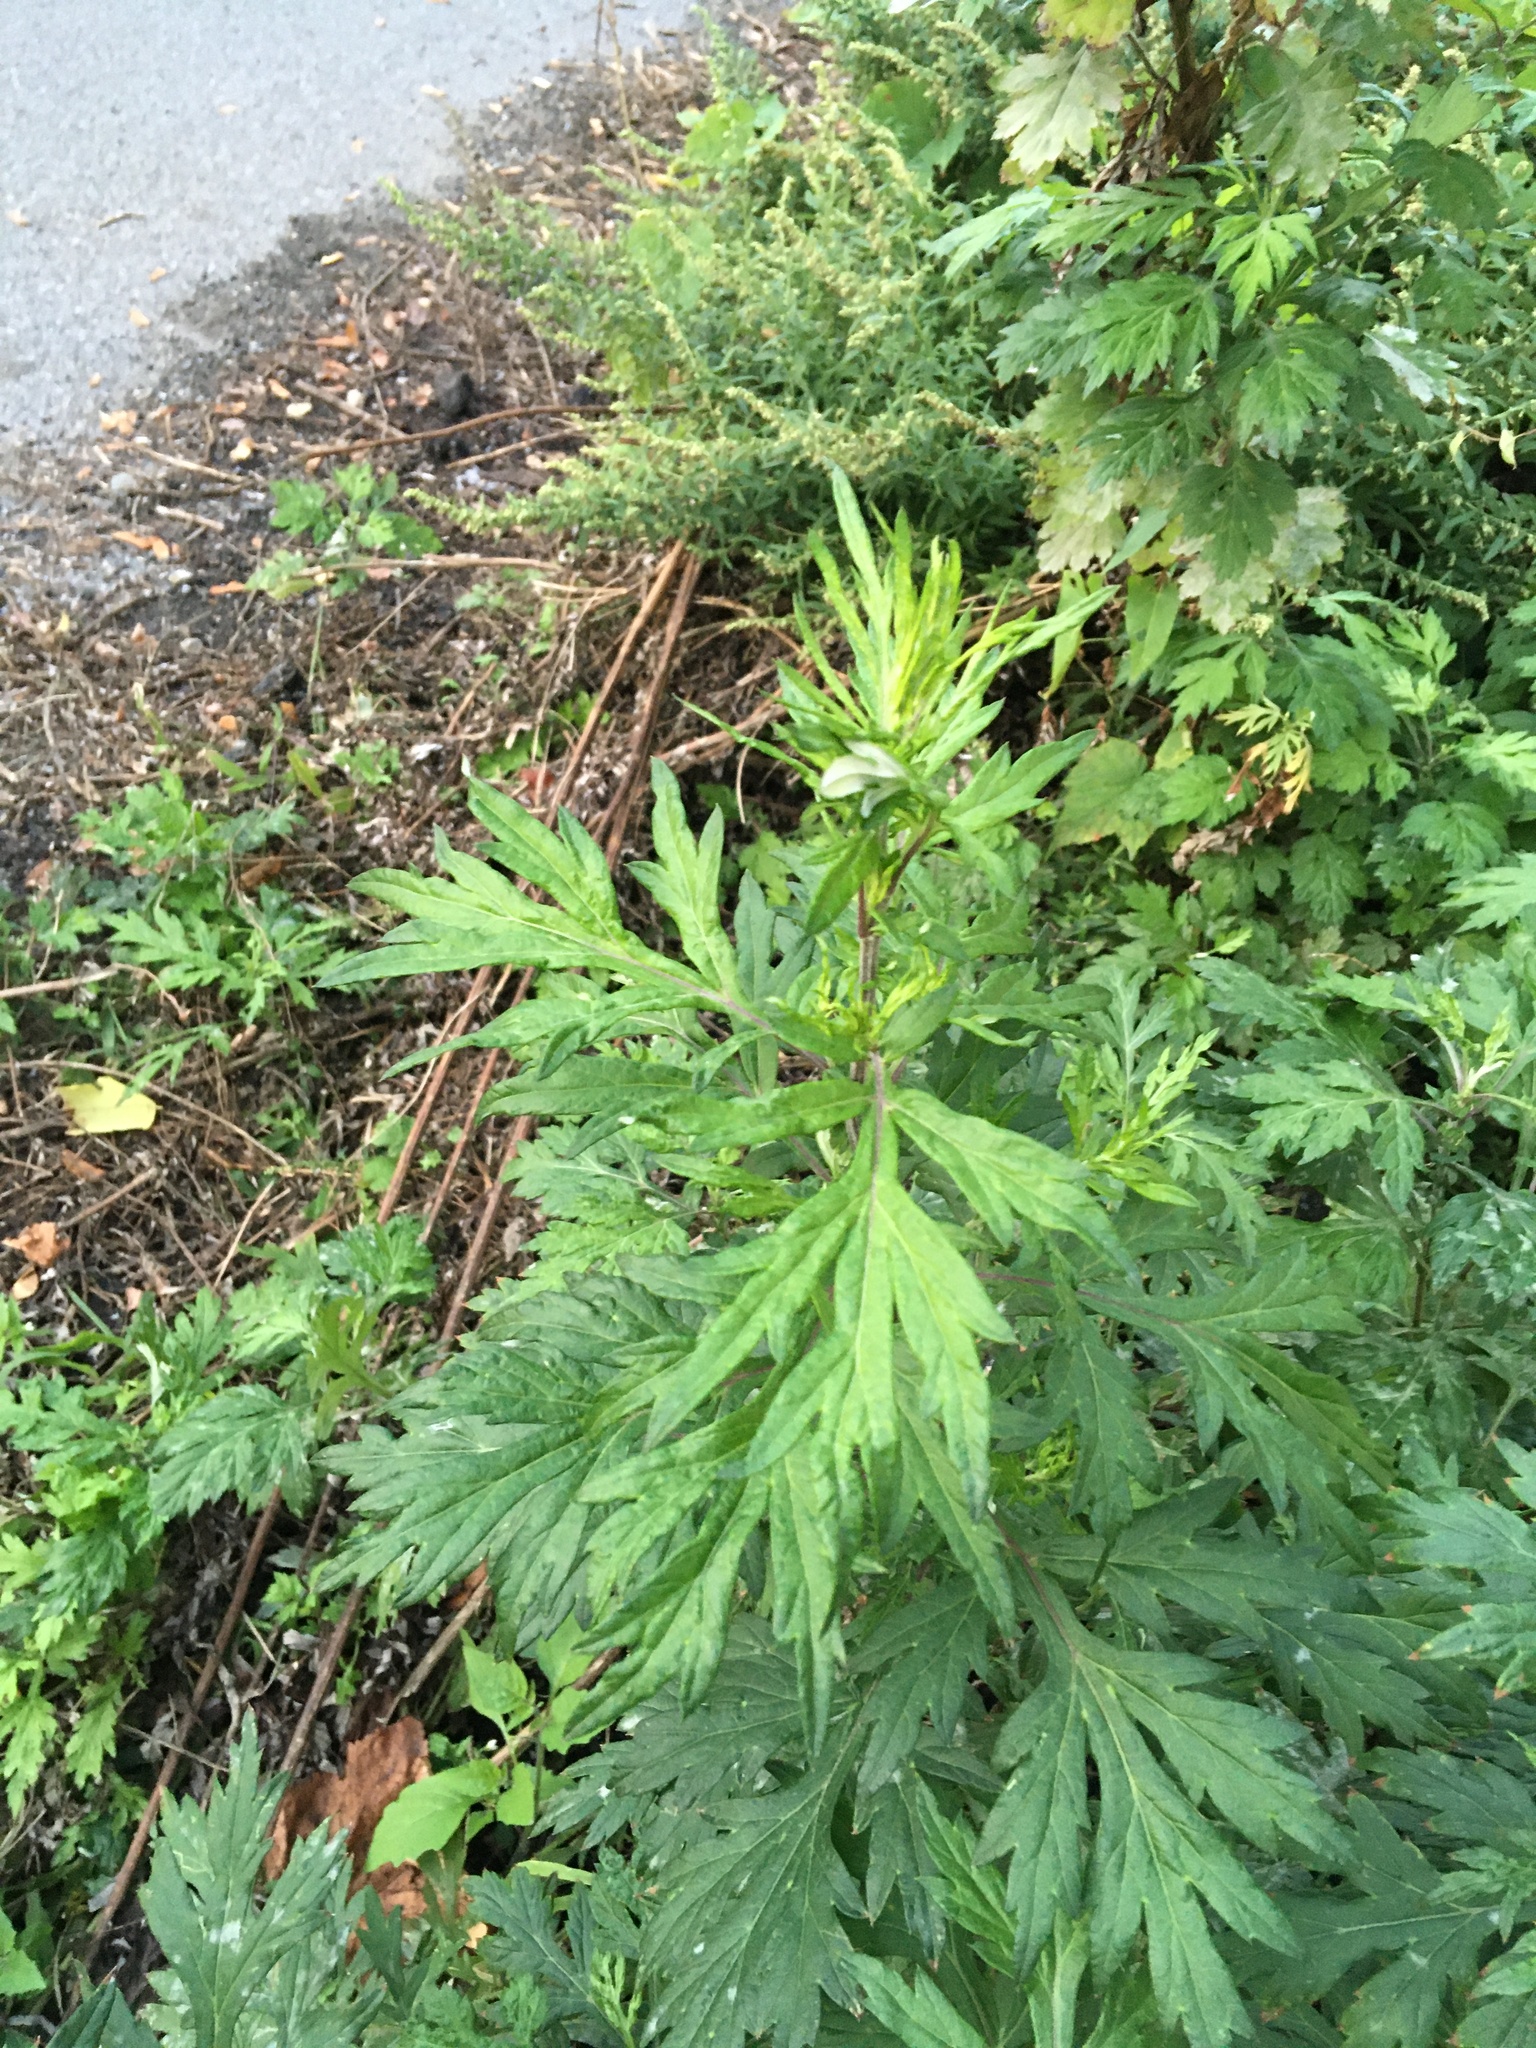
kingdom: Plantae
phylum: Tracheophyta
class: Magnoliopsida
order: Asterales
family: Asteraceae
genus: Artemisia
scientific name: Artemisia vulgaris
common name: Mugwort
